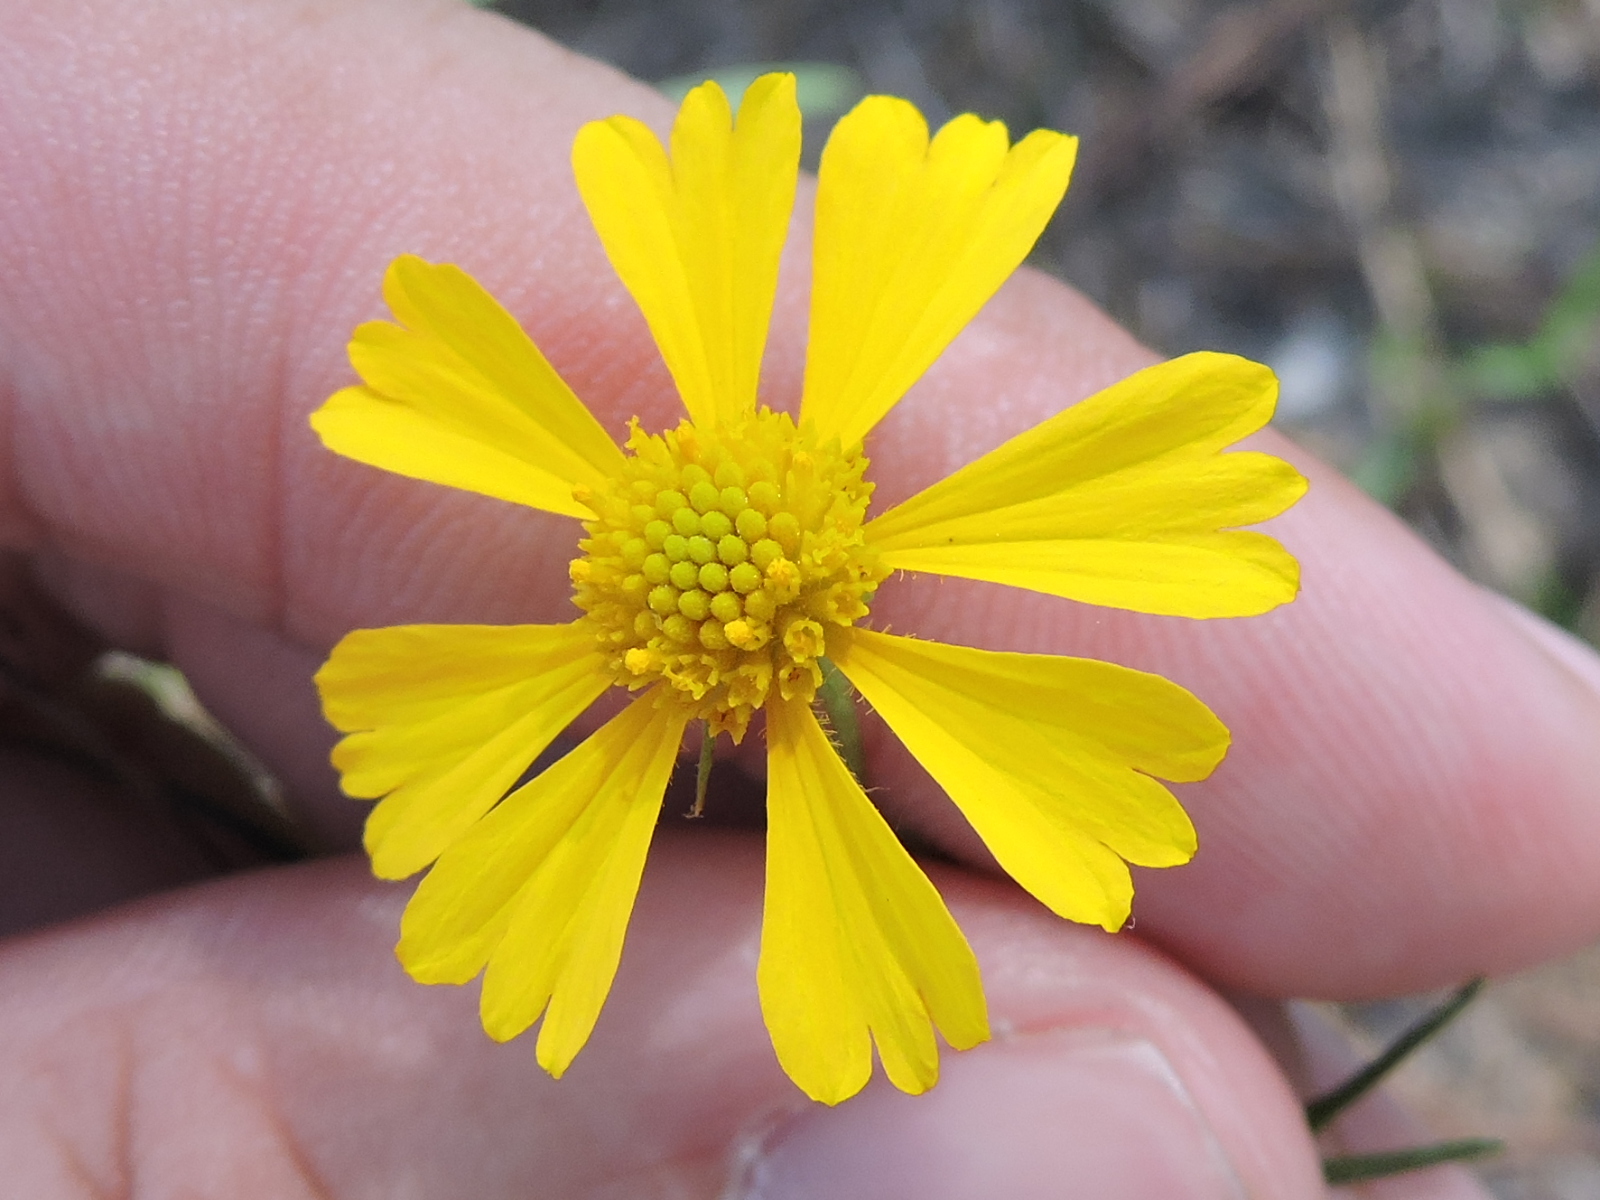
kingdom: Plantae
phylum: Tracheophyta
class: Magnoliopsida
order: Asterales
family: Asteraceae
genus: Helenium
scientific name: Helenium amarum
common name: Bitter sneezeweed
